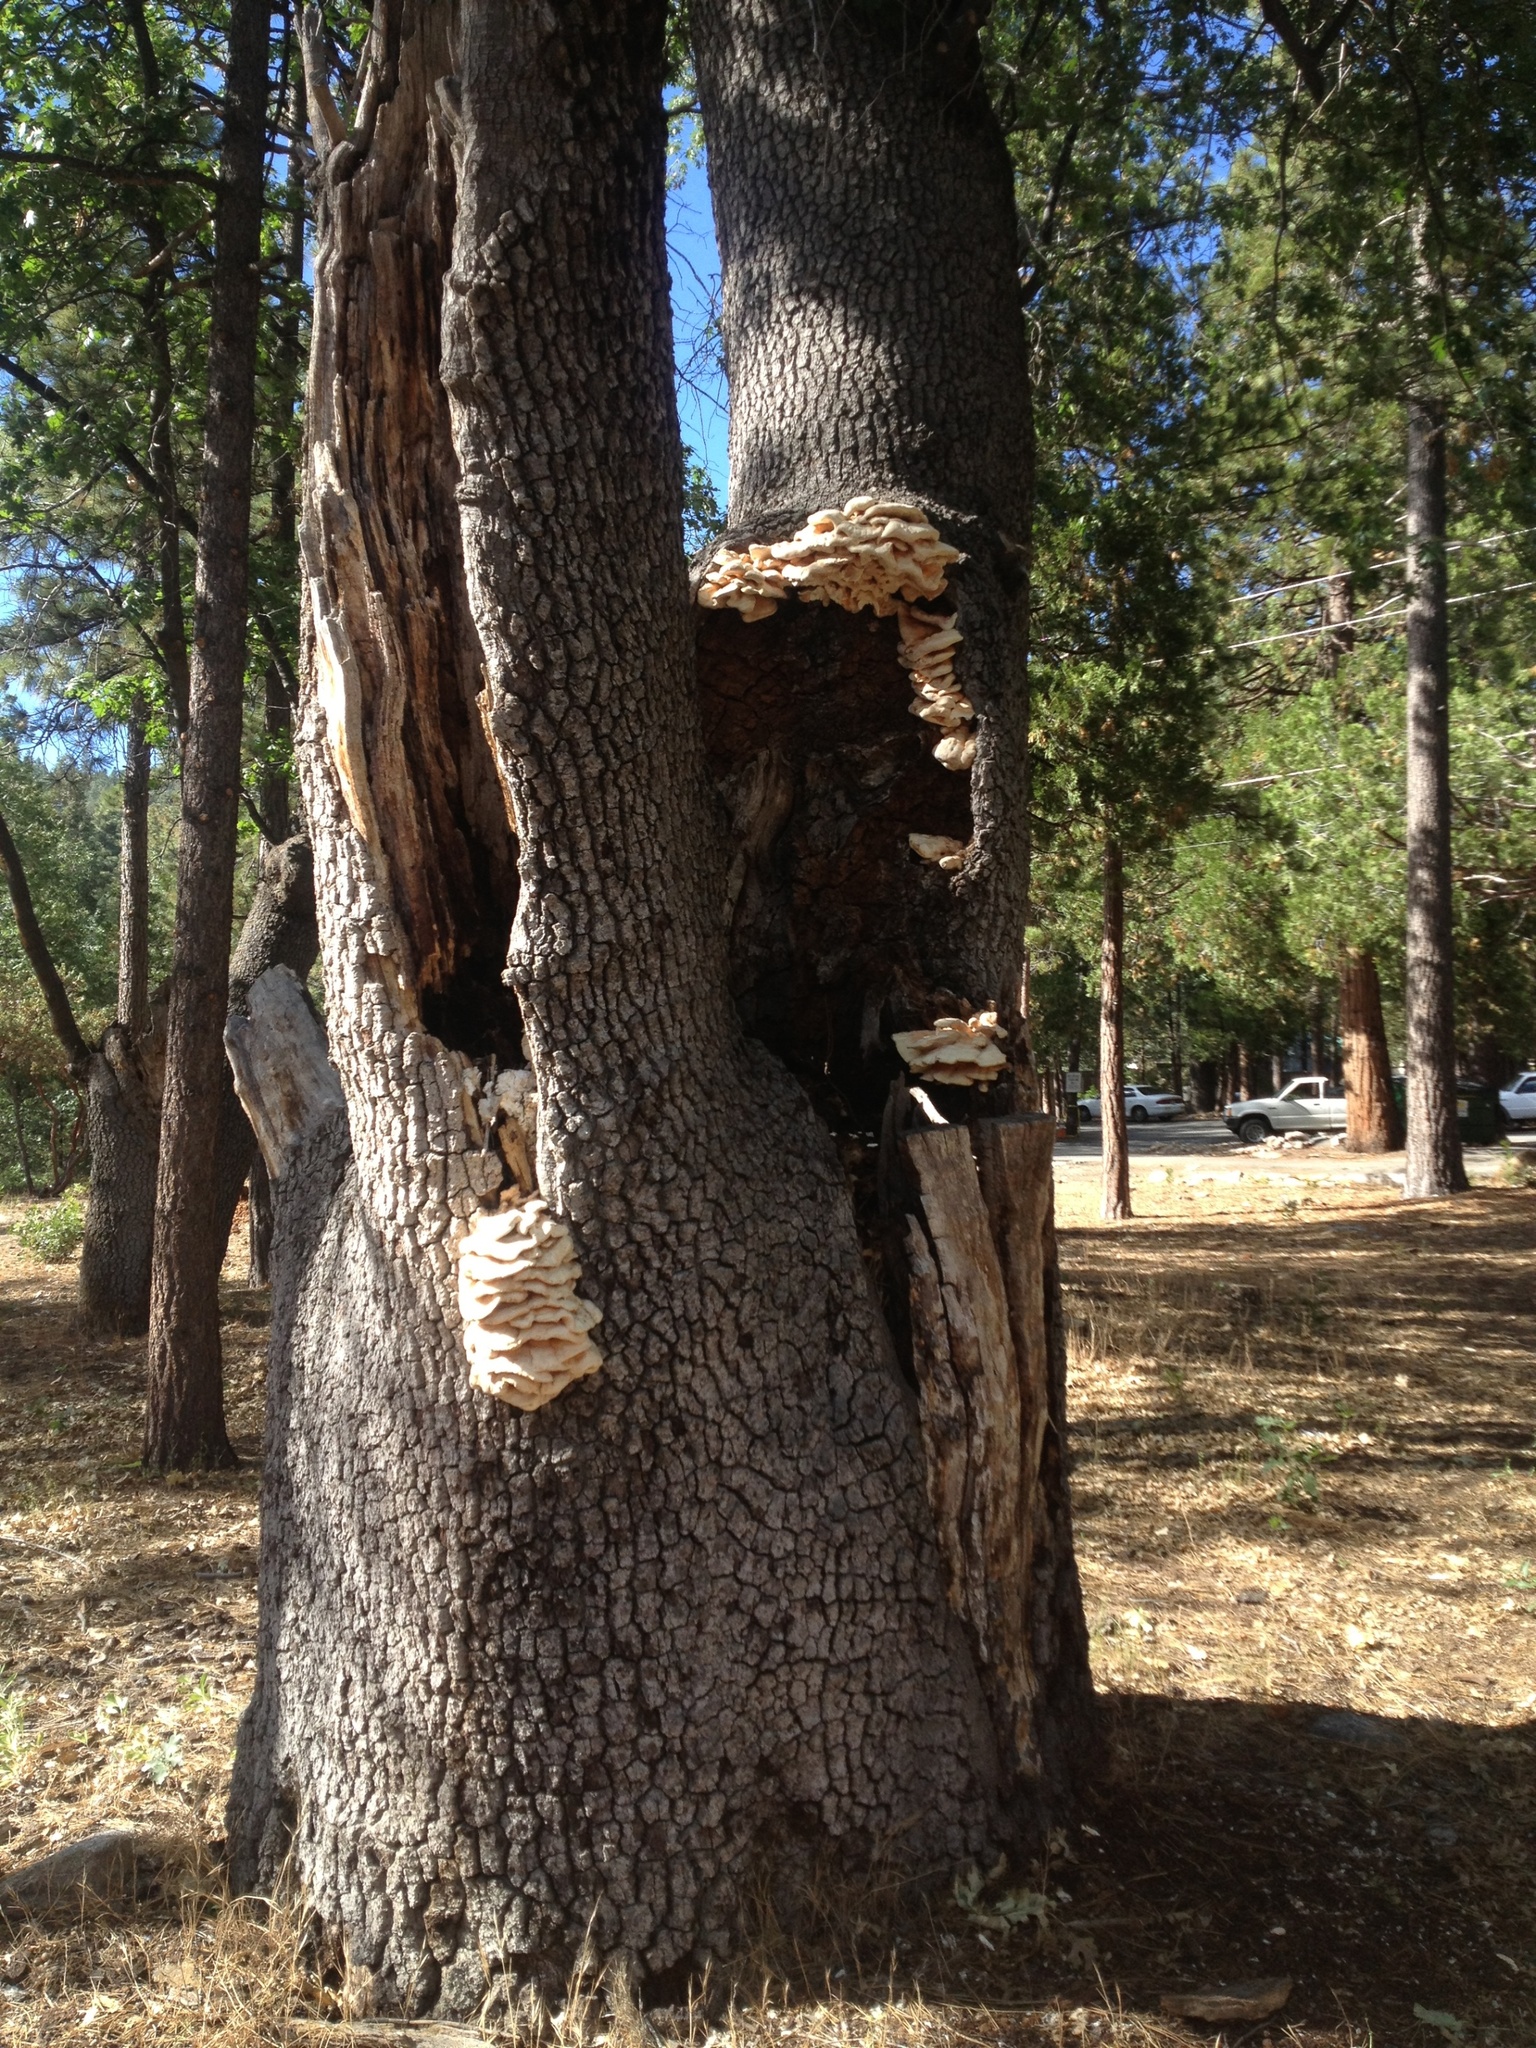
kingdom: Fungi
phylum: Basidiomycota
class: Agaricomycetes
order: Polyporales
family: Laetiporaceae
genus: Laetiporus
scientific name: Laetiporus gilbertsonii
